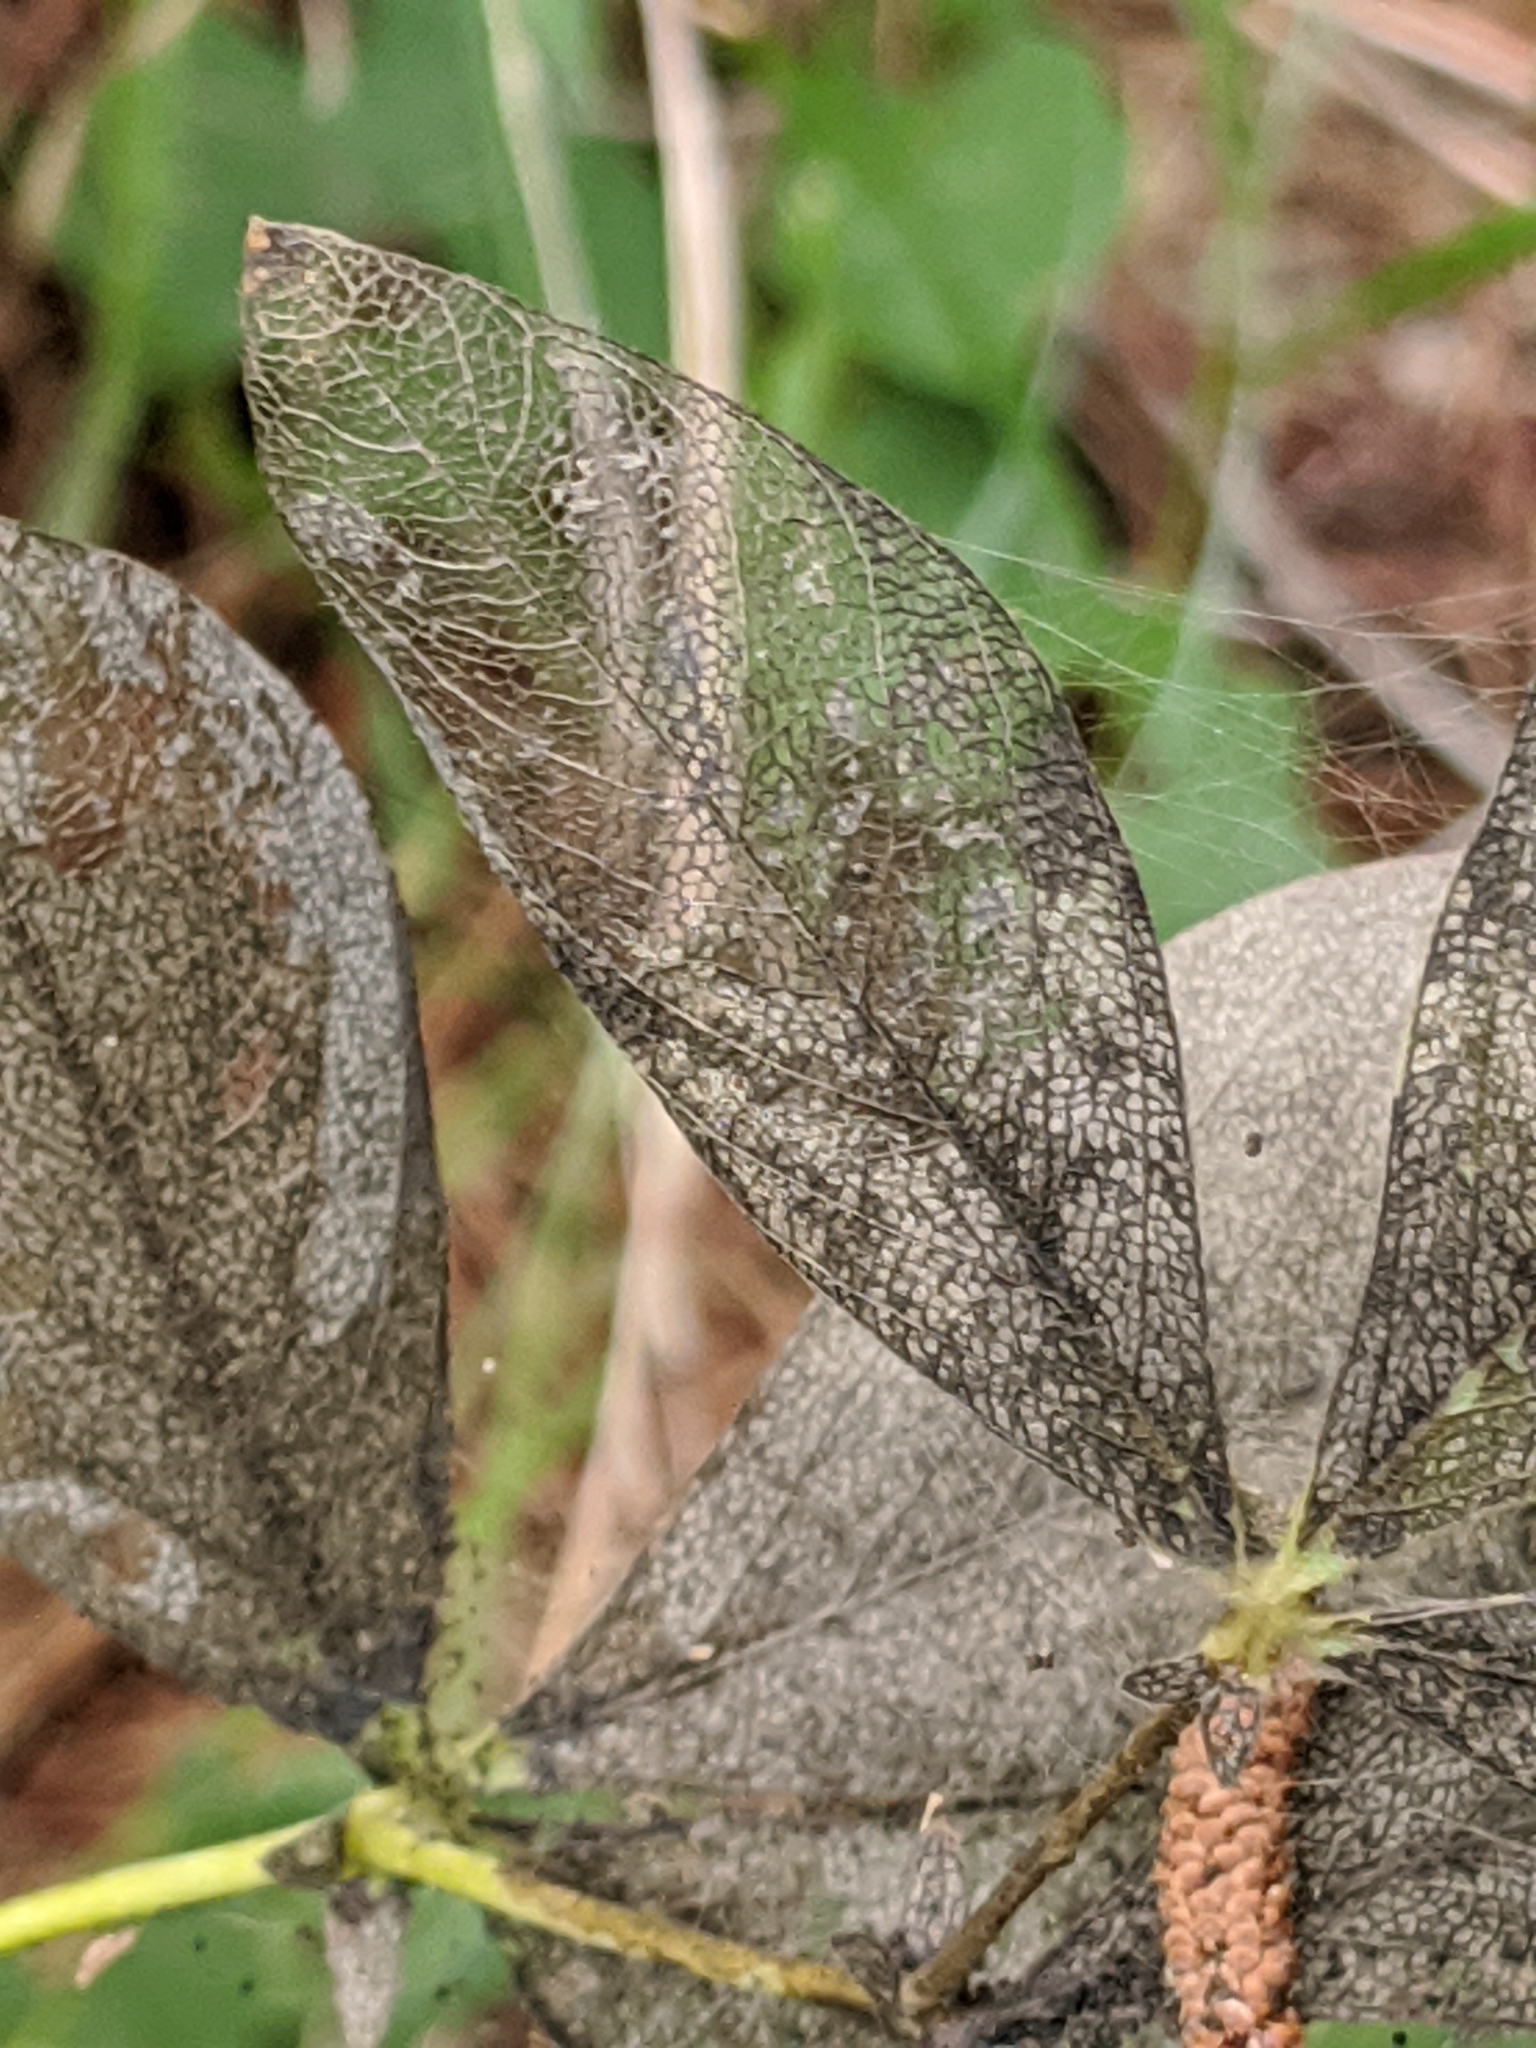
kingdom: Animalia
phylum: Arthropoda
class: Insecta
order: Lepidoptera
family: Crambidae
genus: Uresiphita
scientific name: Uresiphita reversalis
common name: Genista broom moth
